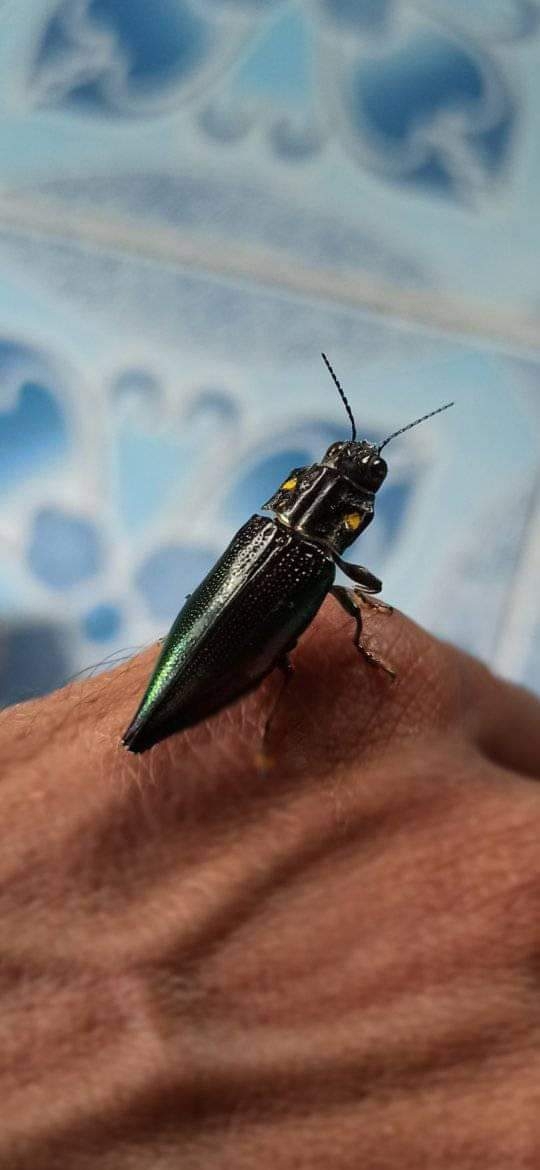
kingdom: Animalia
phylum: Arthropoda
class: Insecta
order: Coleoptera
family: Buprestidae
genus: Cyphogastra
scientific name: Cyphogastra semipurpurea
